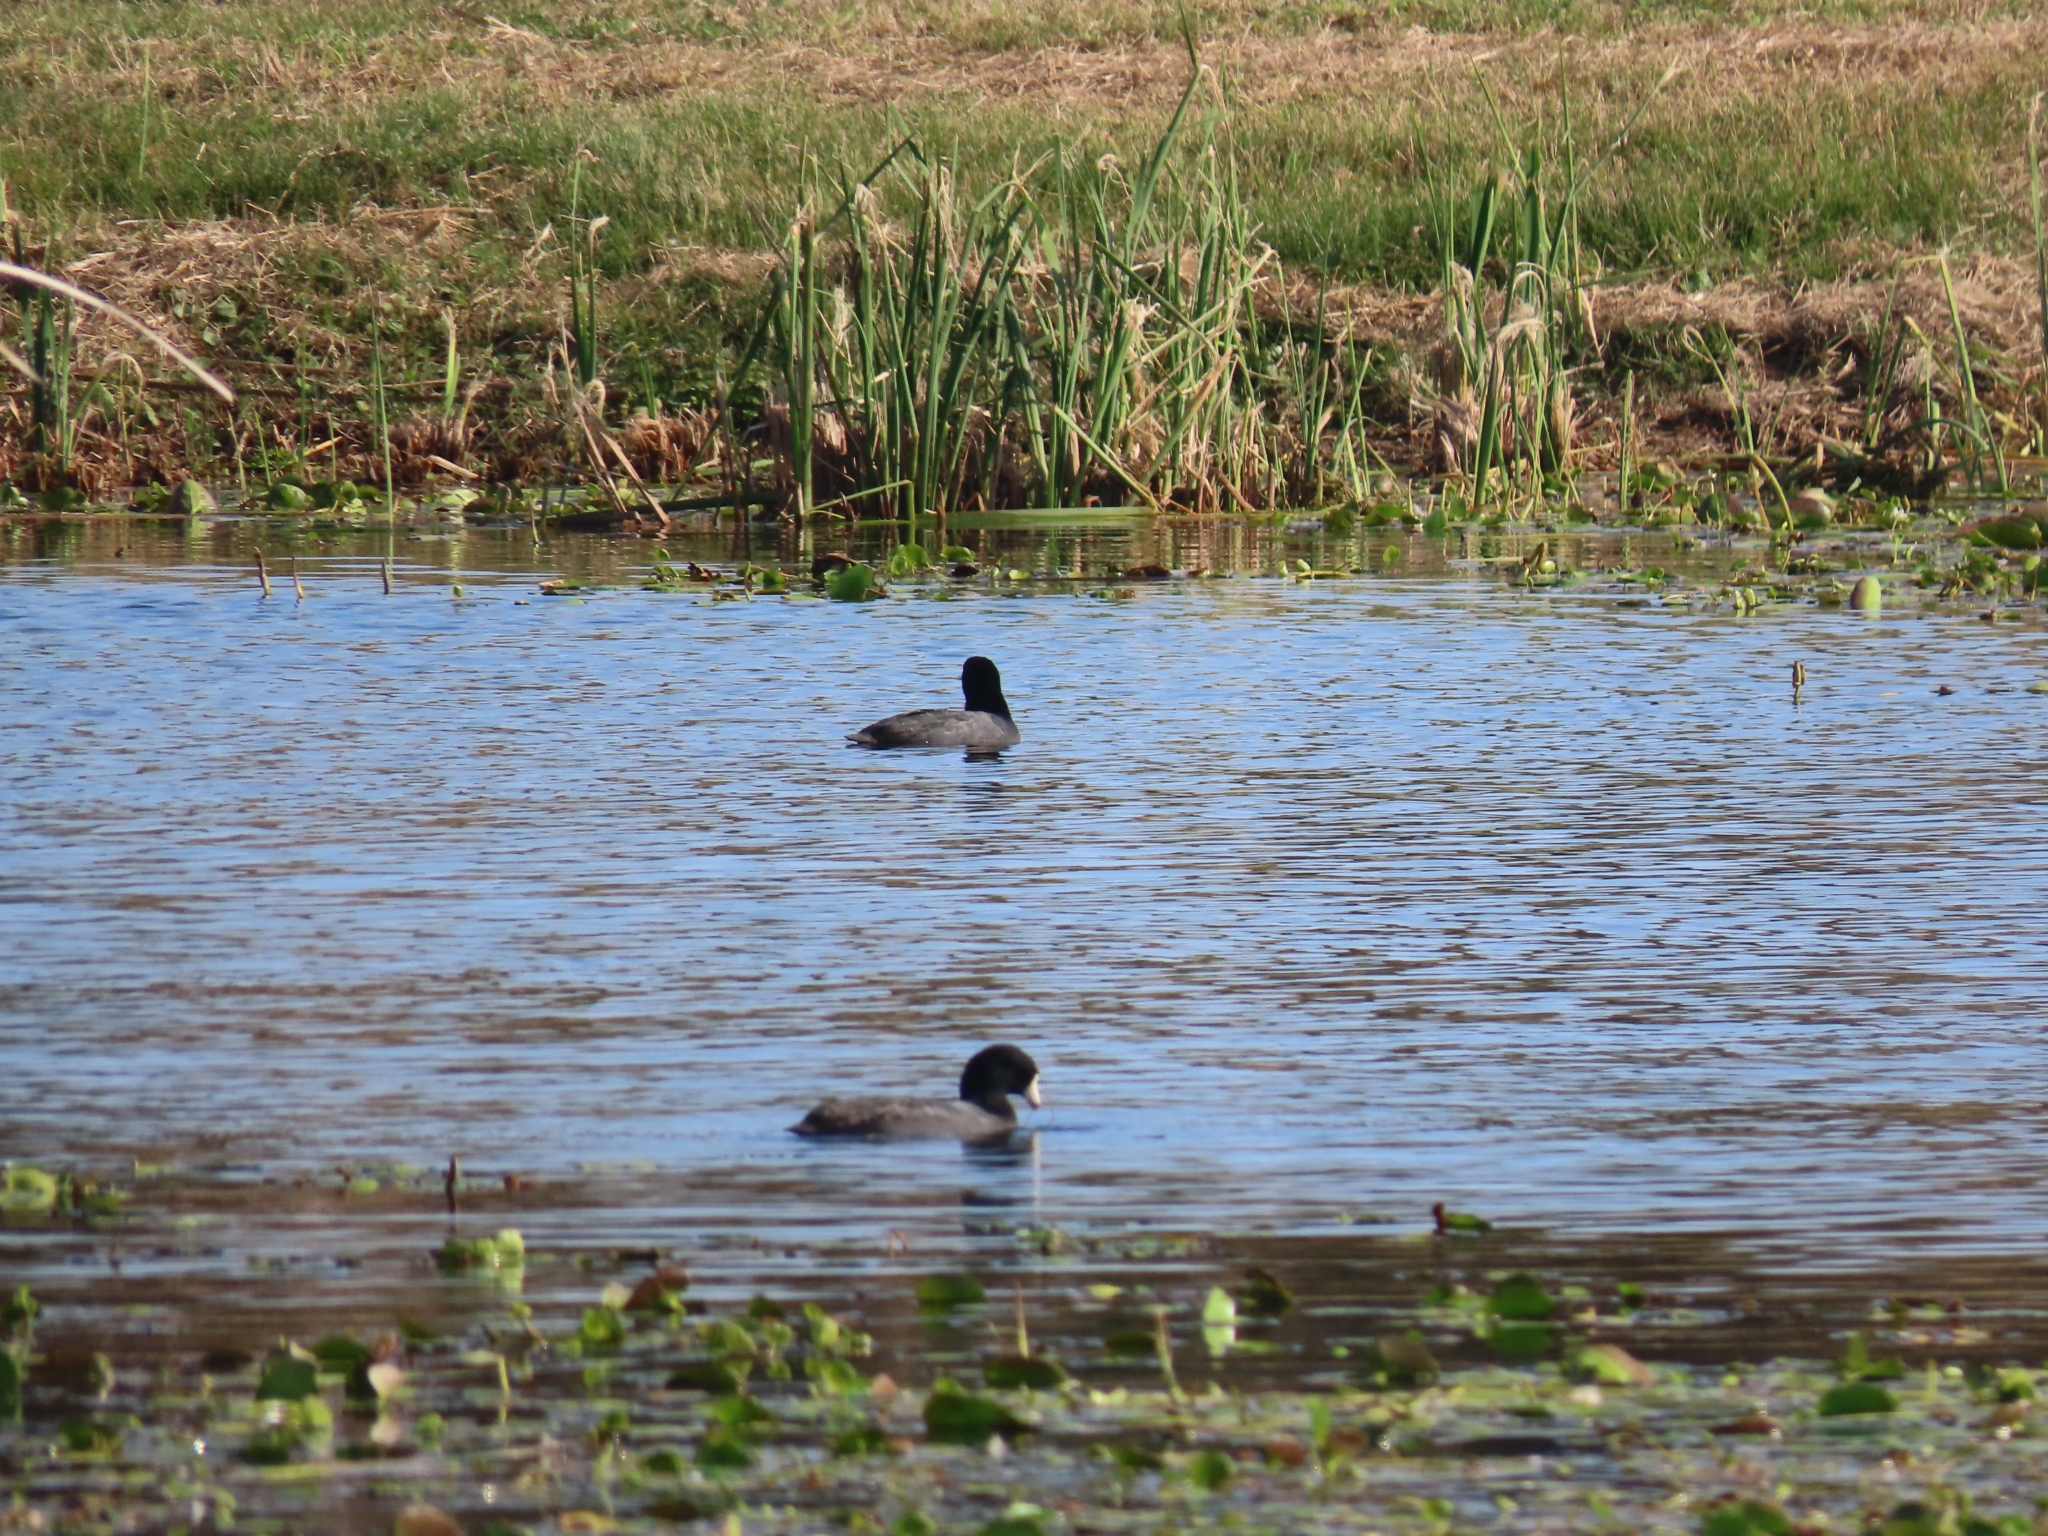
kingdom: Animalia
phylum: Chordata
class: Aves
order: Gruiformes
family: Rallidae
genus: Fulica
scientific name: Fulica americana
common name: American coot
